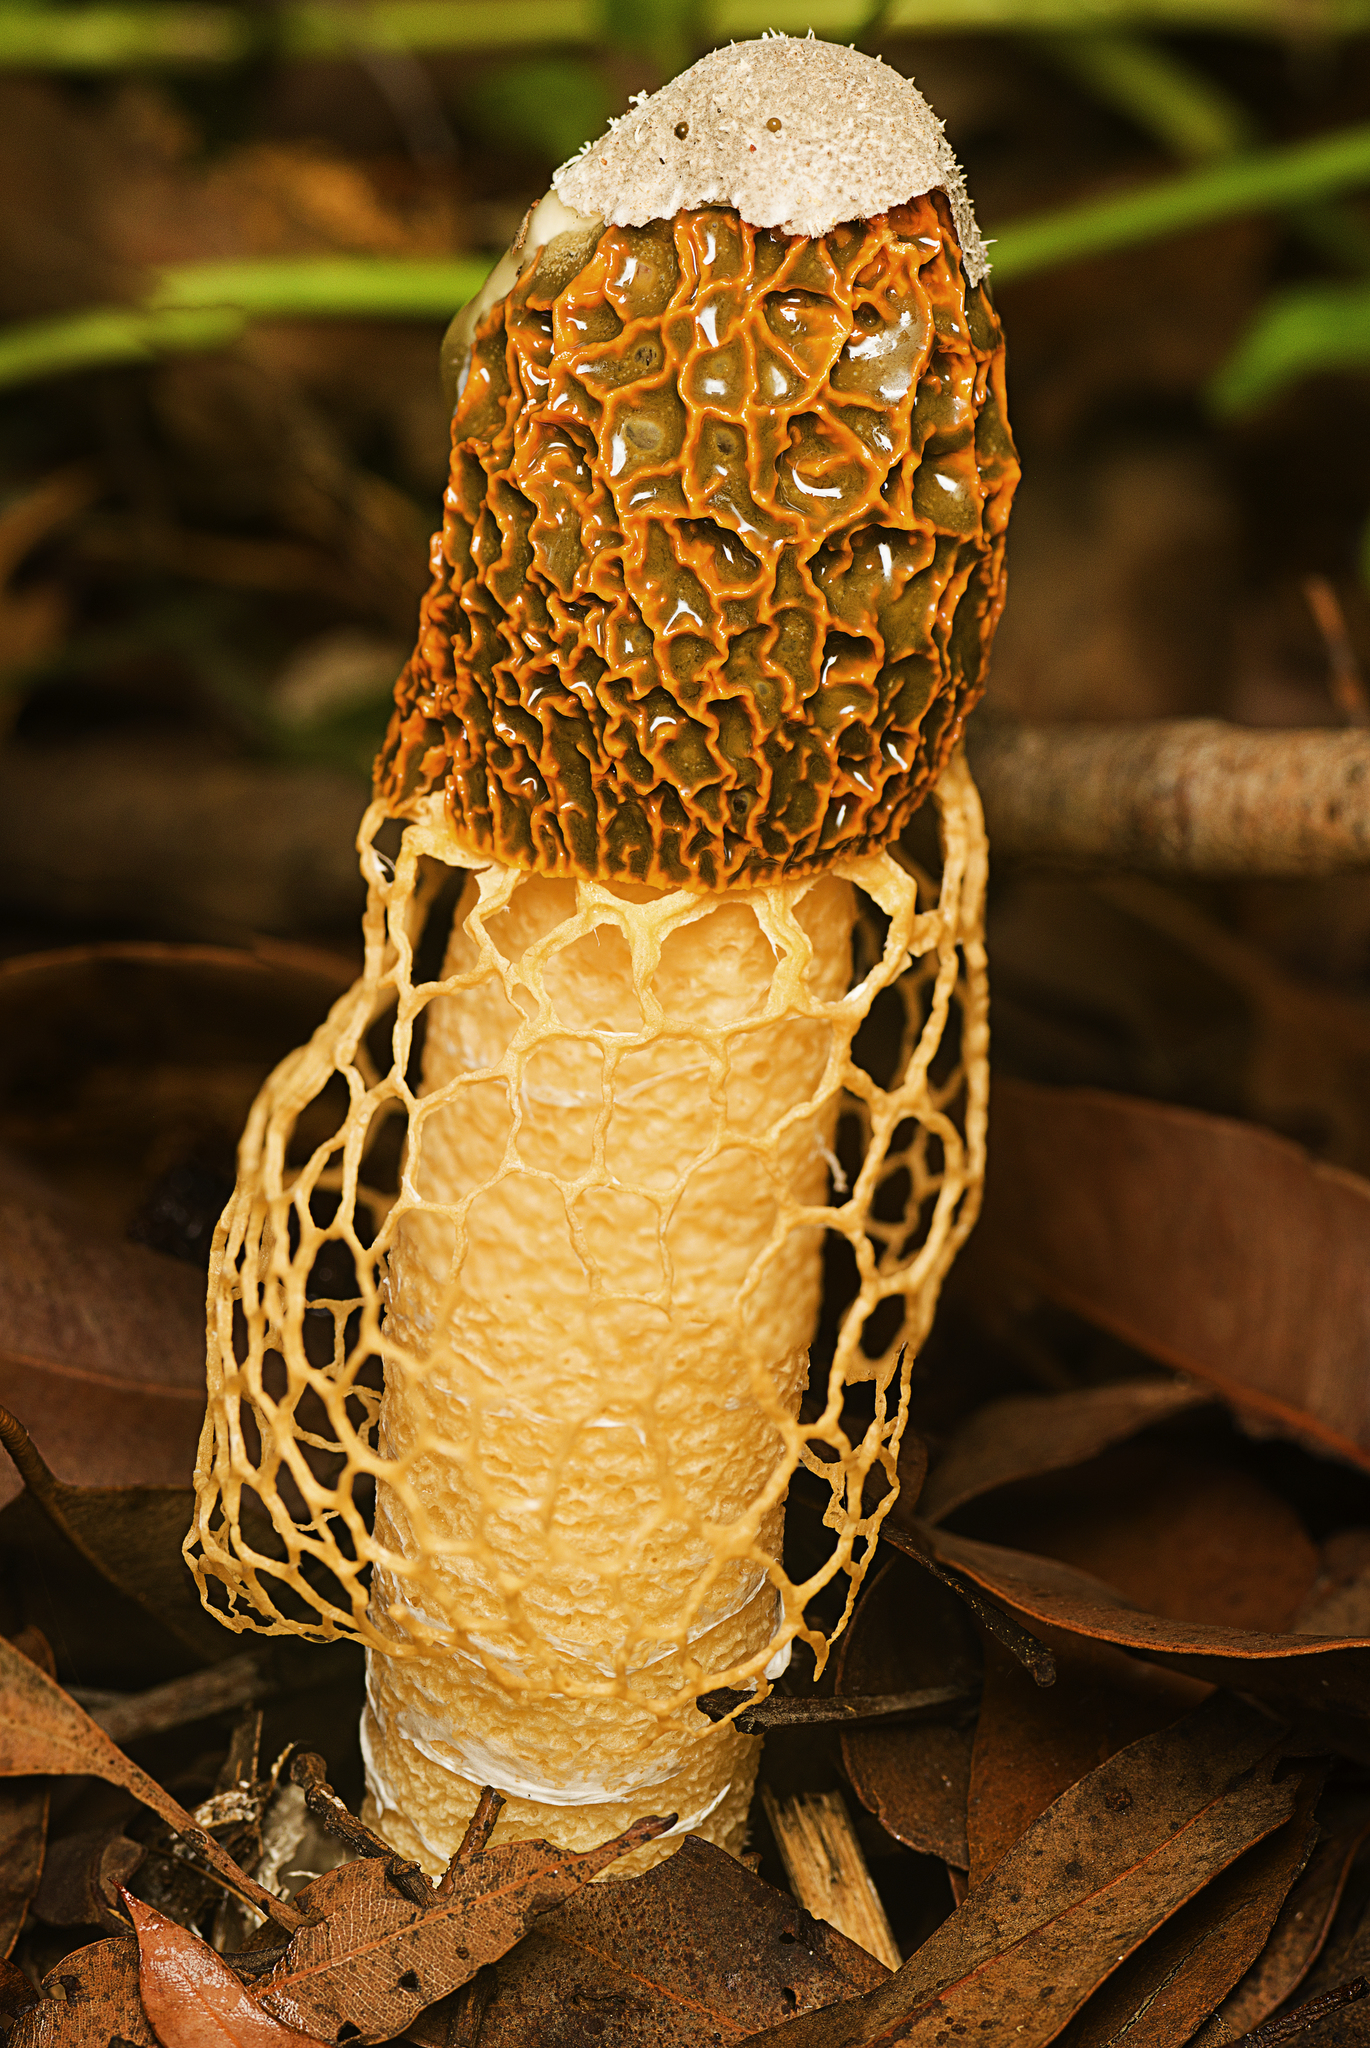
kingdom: Fungi
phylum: Basidiomycota
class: Agaricomycetes
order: Phallales
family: Phallaceae
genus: Phallus
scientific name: Phallus multicolor
